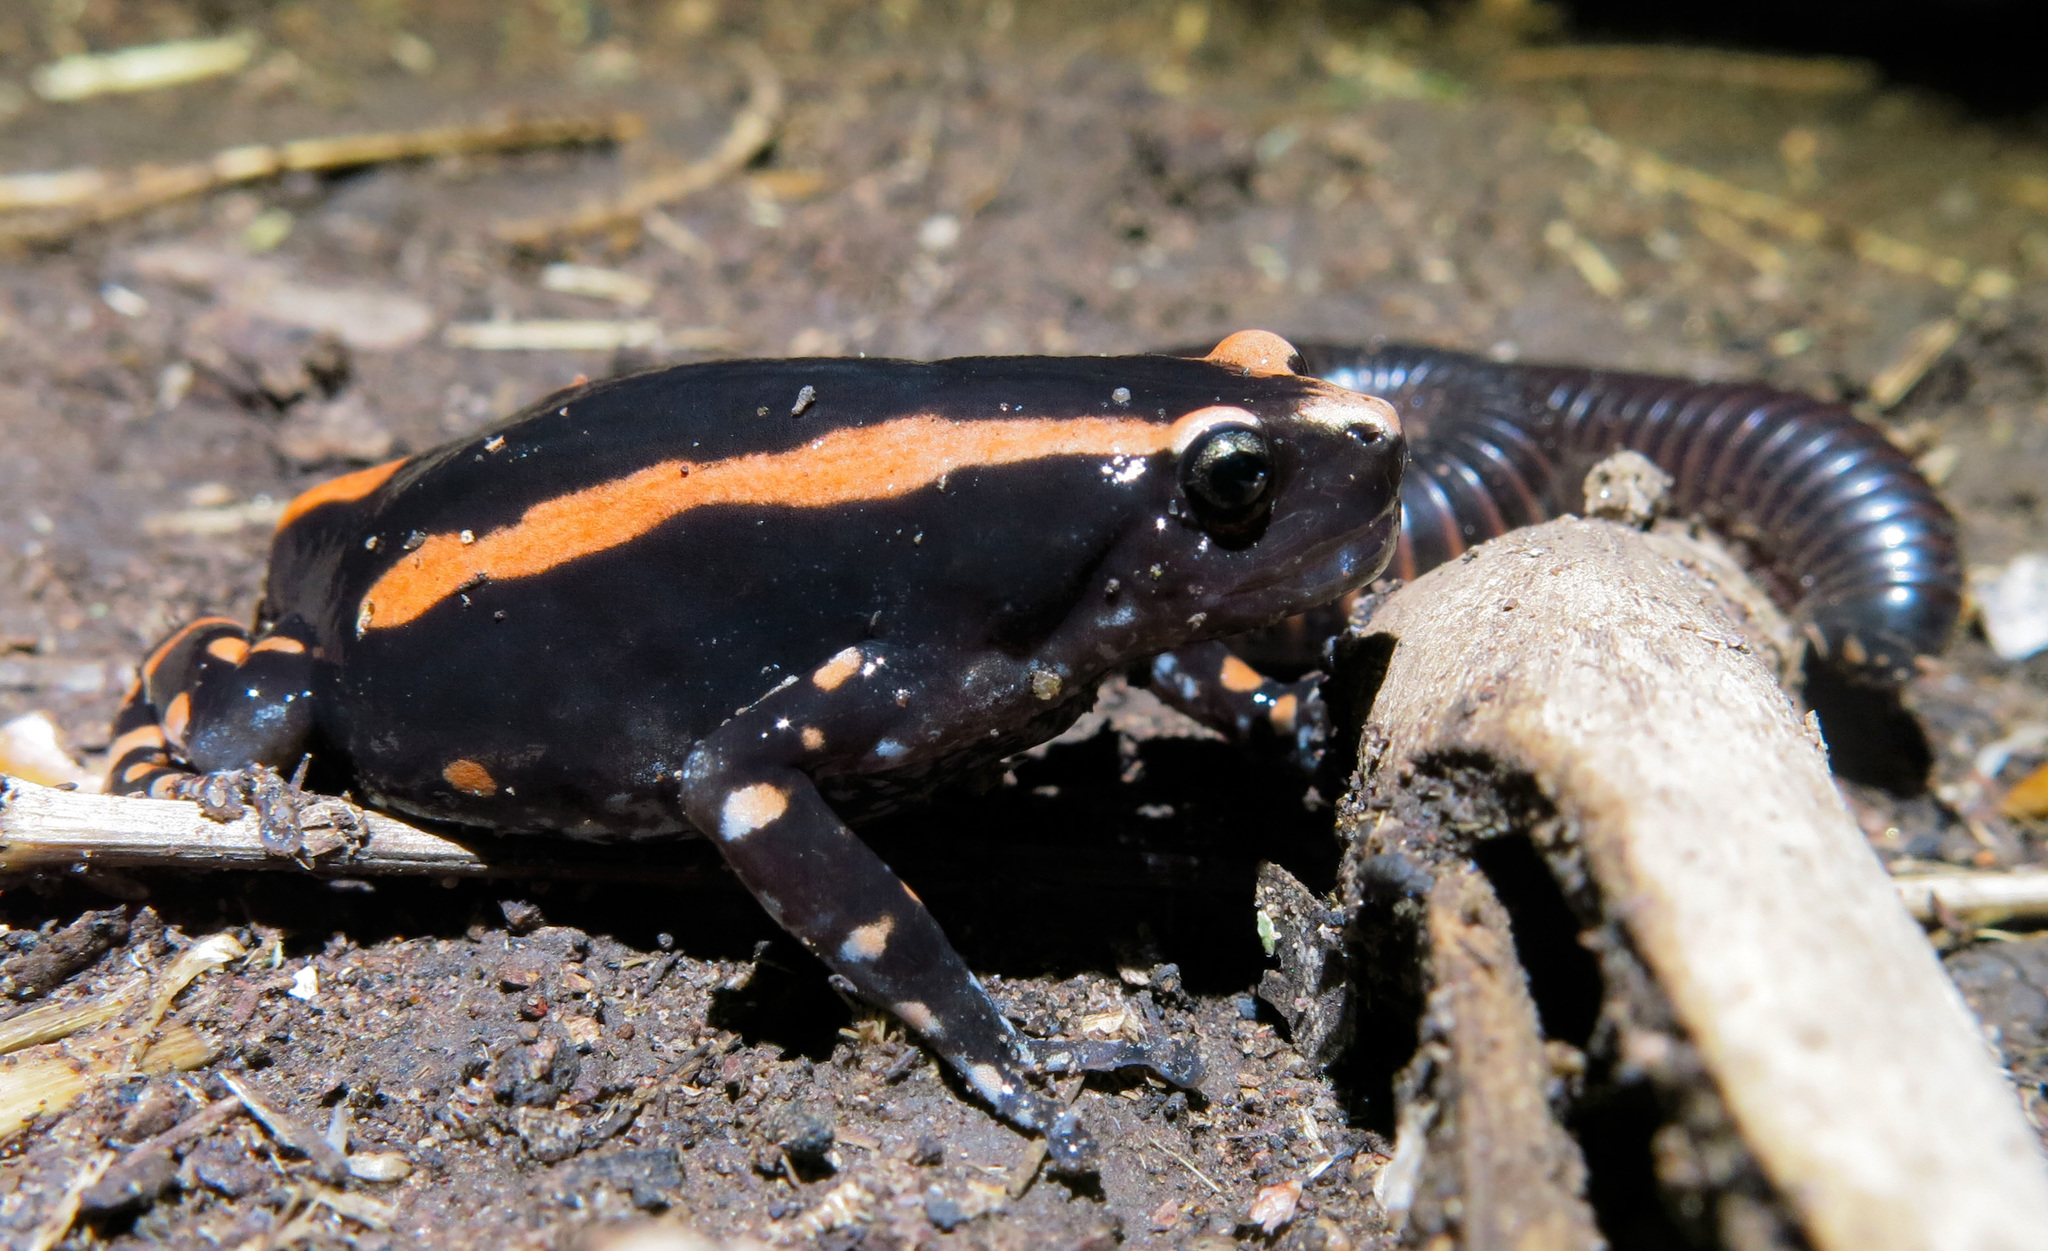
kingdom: Animalia
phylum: Chordata
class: Amphibia
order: Anura
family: Microhylidae
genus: Phrynomantis
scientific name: Phrynomantis bifasciatus
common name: Banded rubber frog
